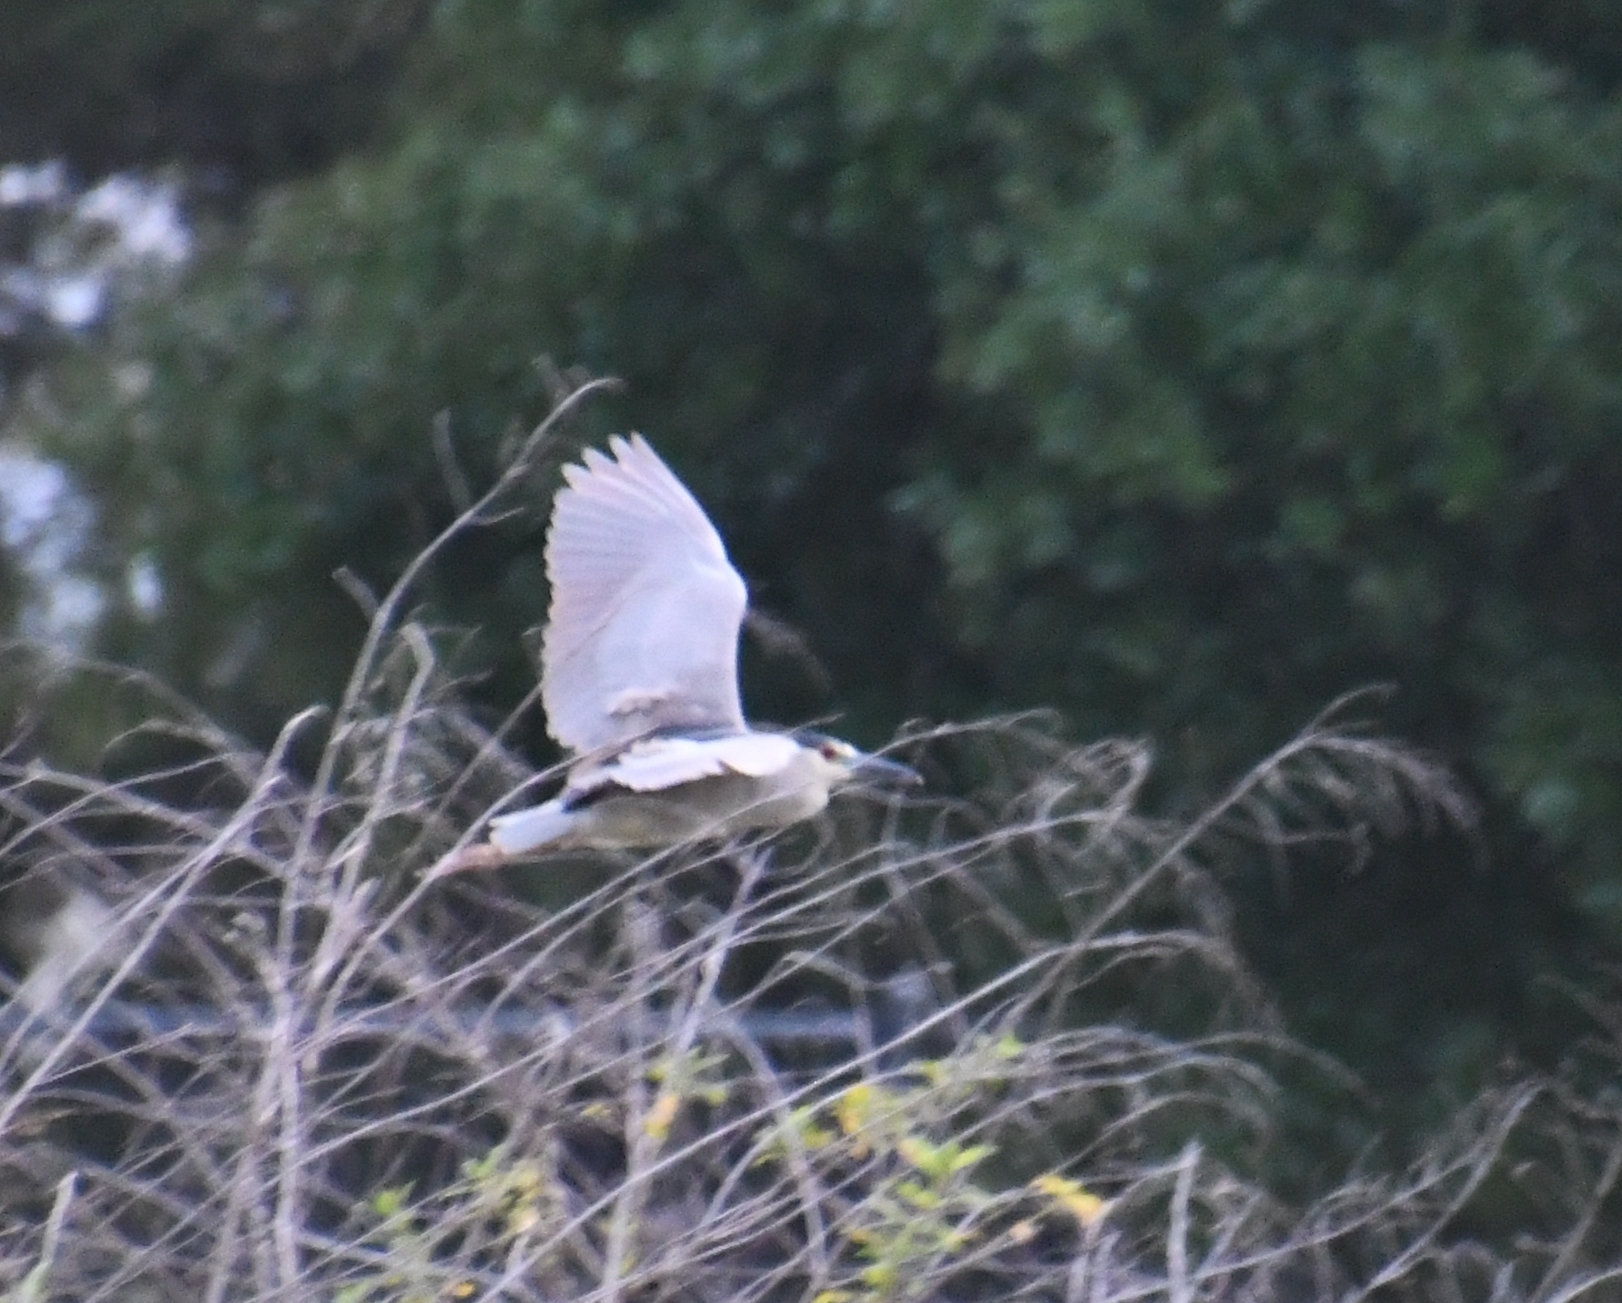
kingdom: Animalia
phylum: Chordata
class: Aves
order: Pelecaniformes
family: Ardeidae
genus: Nycticorax
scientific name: Nycticorax nycticorax
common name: Black-crowned night heron
